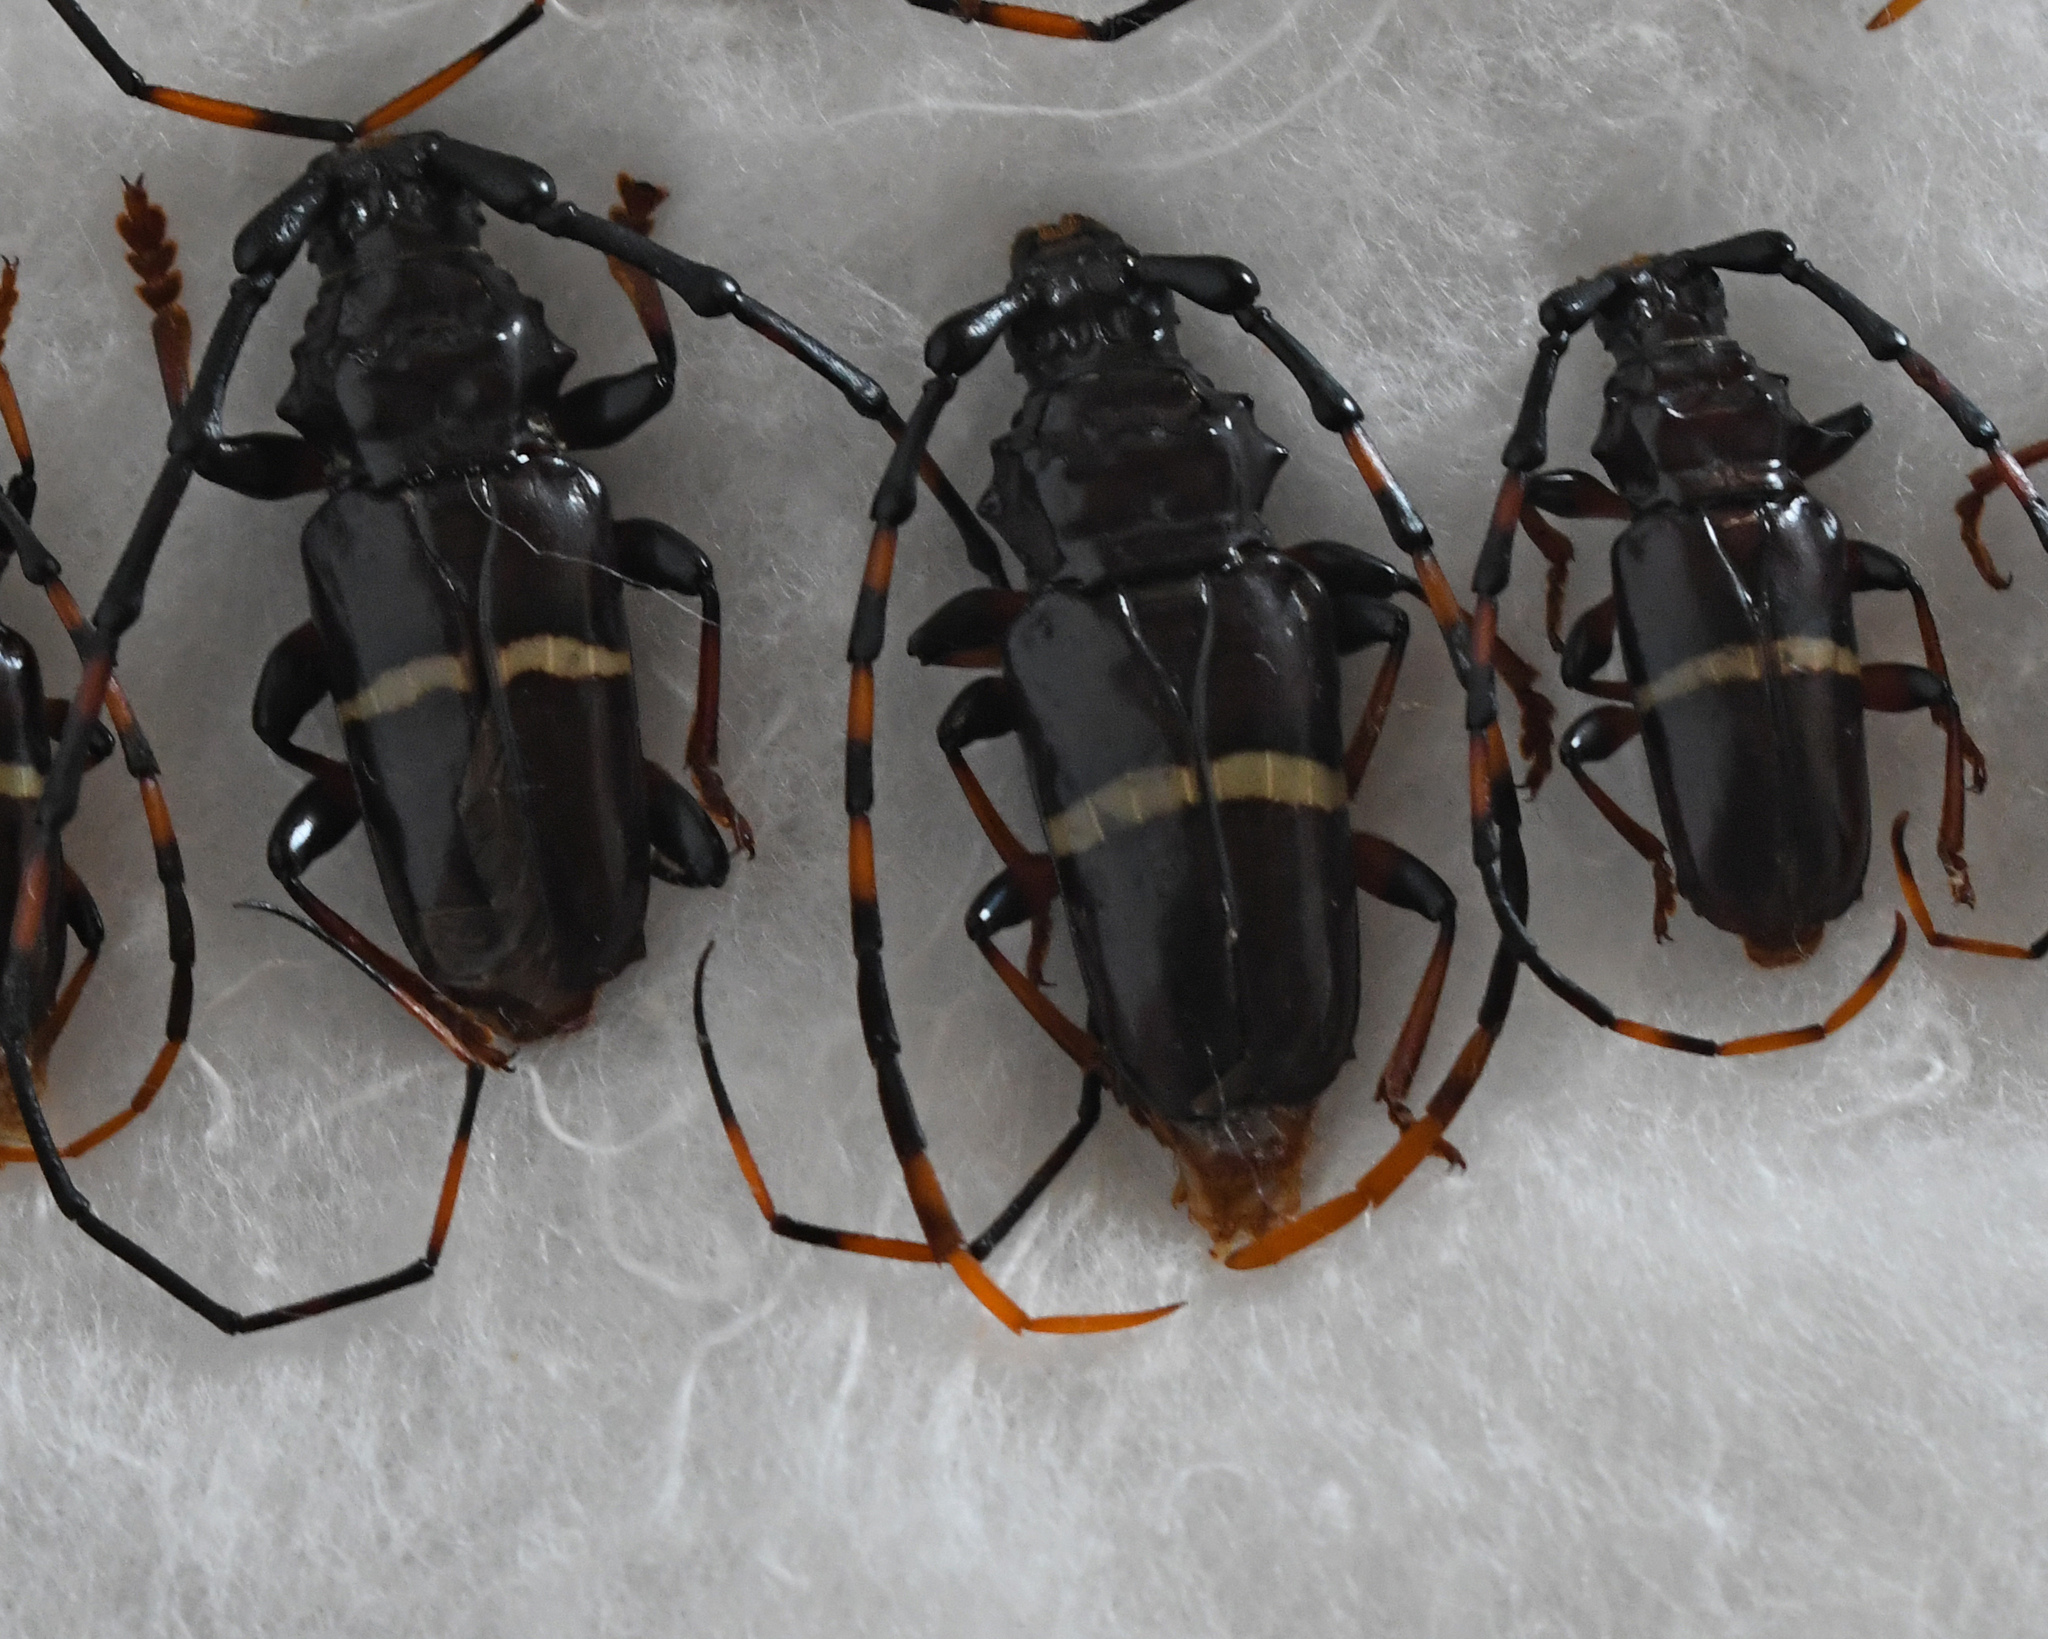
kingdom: Animalia
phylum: Arthropoda
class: Insecta
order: Coleoptera
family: Cerambycidae
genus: Trachyderes
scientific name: Trachyderes succinctus
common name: Mango longhorn
